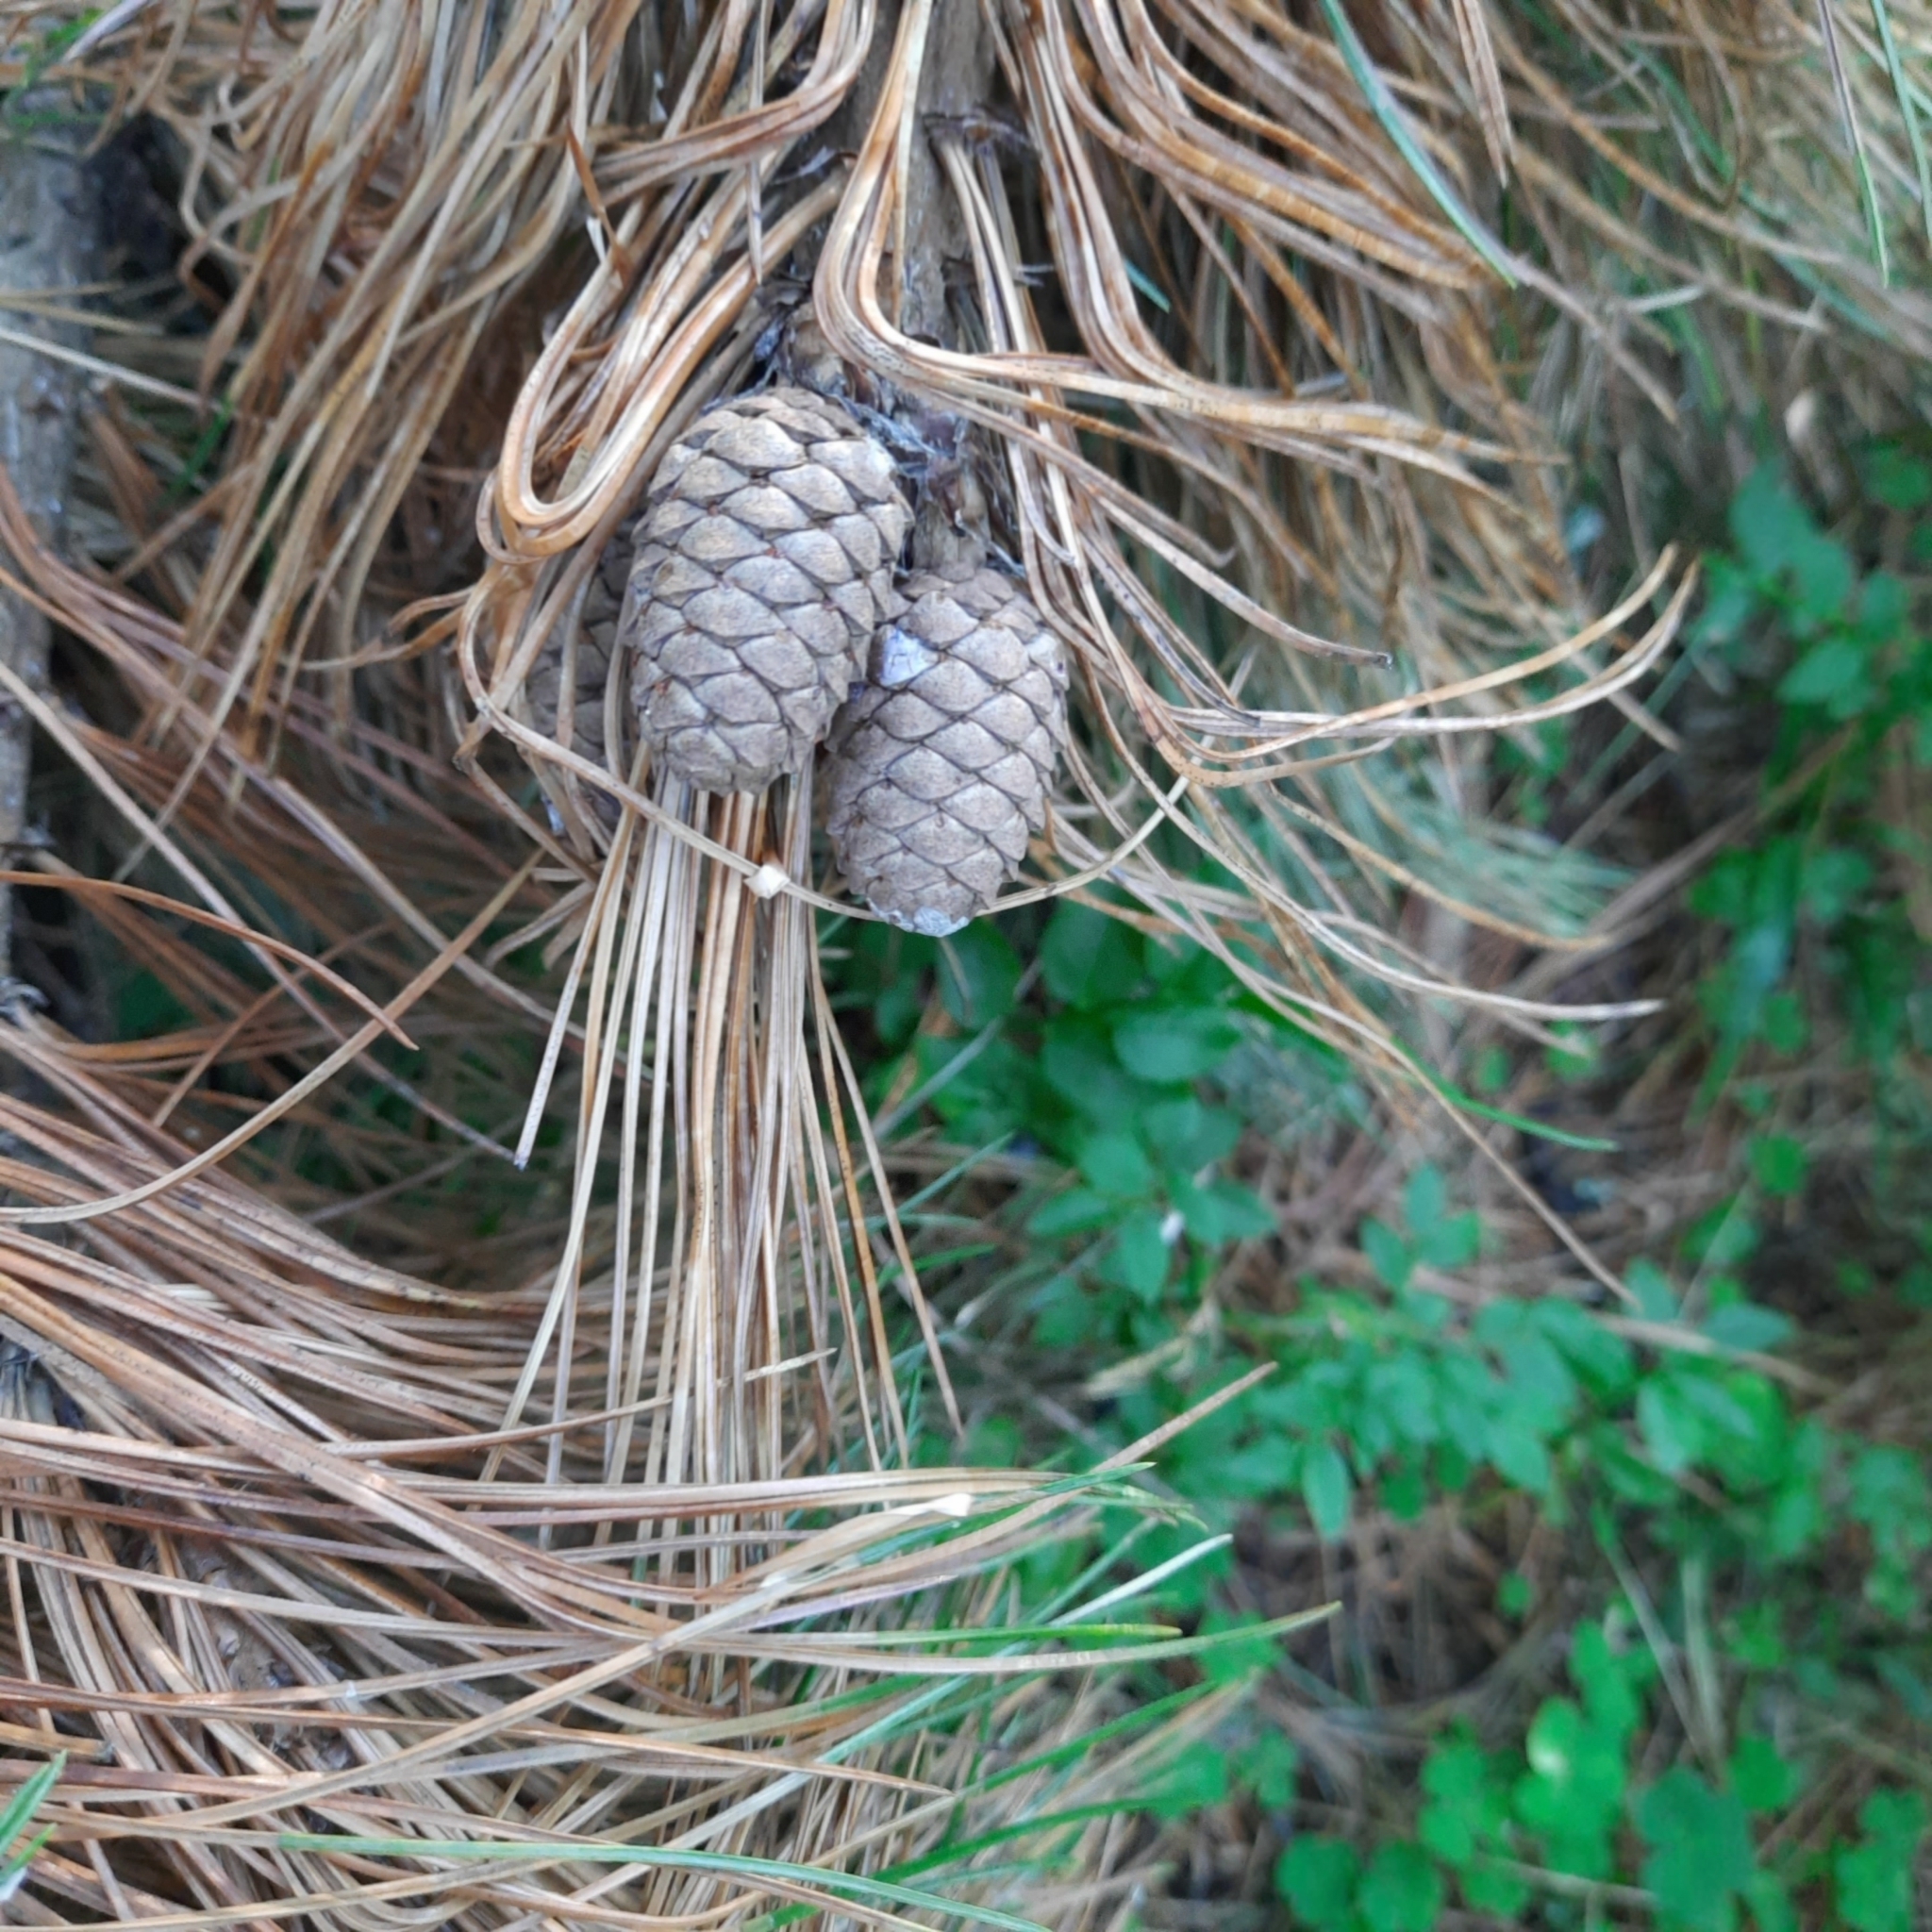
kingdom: Plantae
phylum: Tracheophyta
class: Pinopsida
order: Pinales
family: Pinaceae
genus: Pinus
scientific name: Pinus sibirica
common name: Siberian pine
